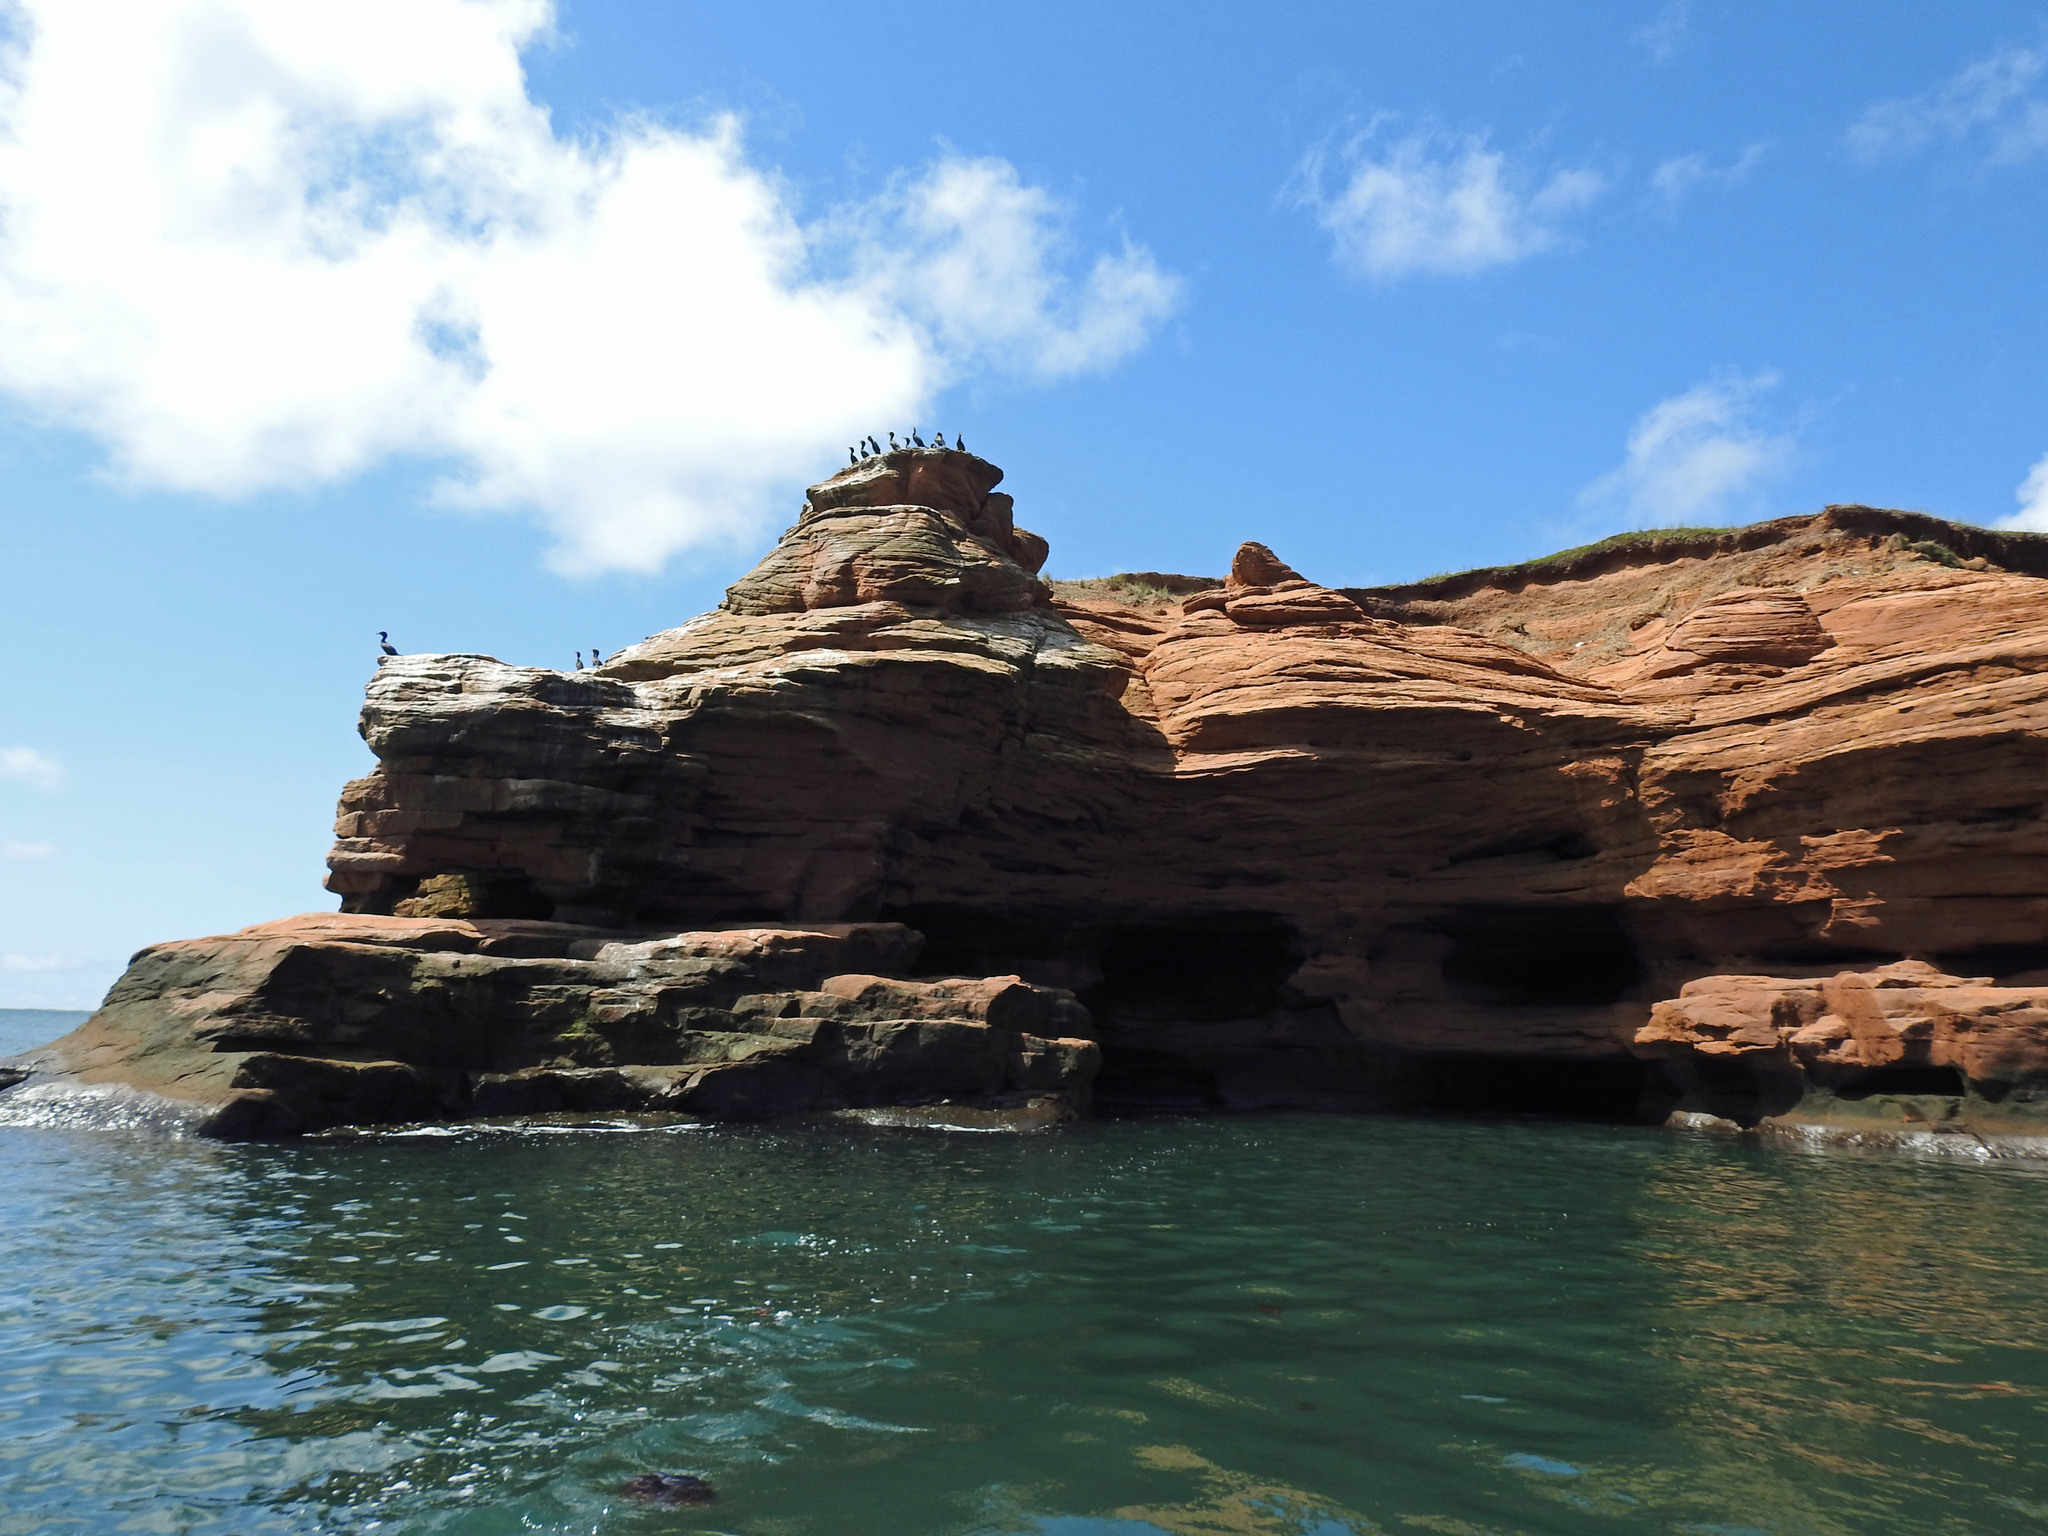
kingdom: Animalia
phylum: Chordata
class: Aves
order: Suliformes
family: Phalacrocoracidae
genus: Phalacrocorax
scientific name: Phalacrocorax auritus
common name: Double-crested cormorant
